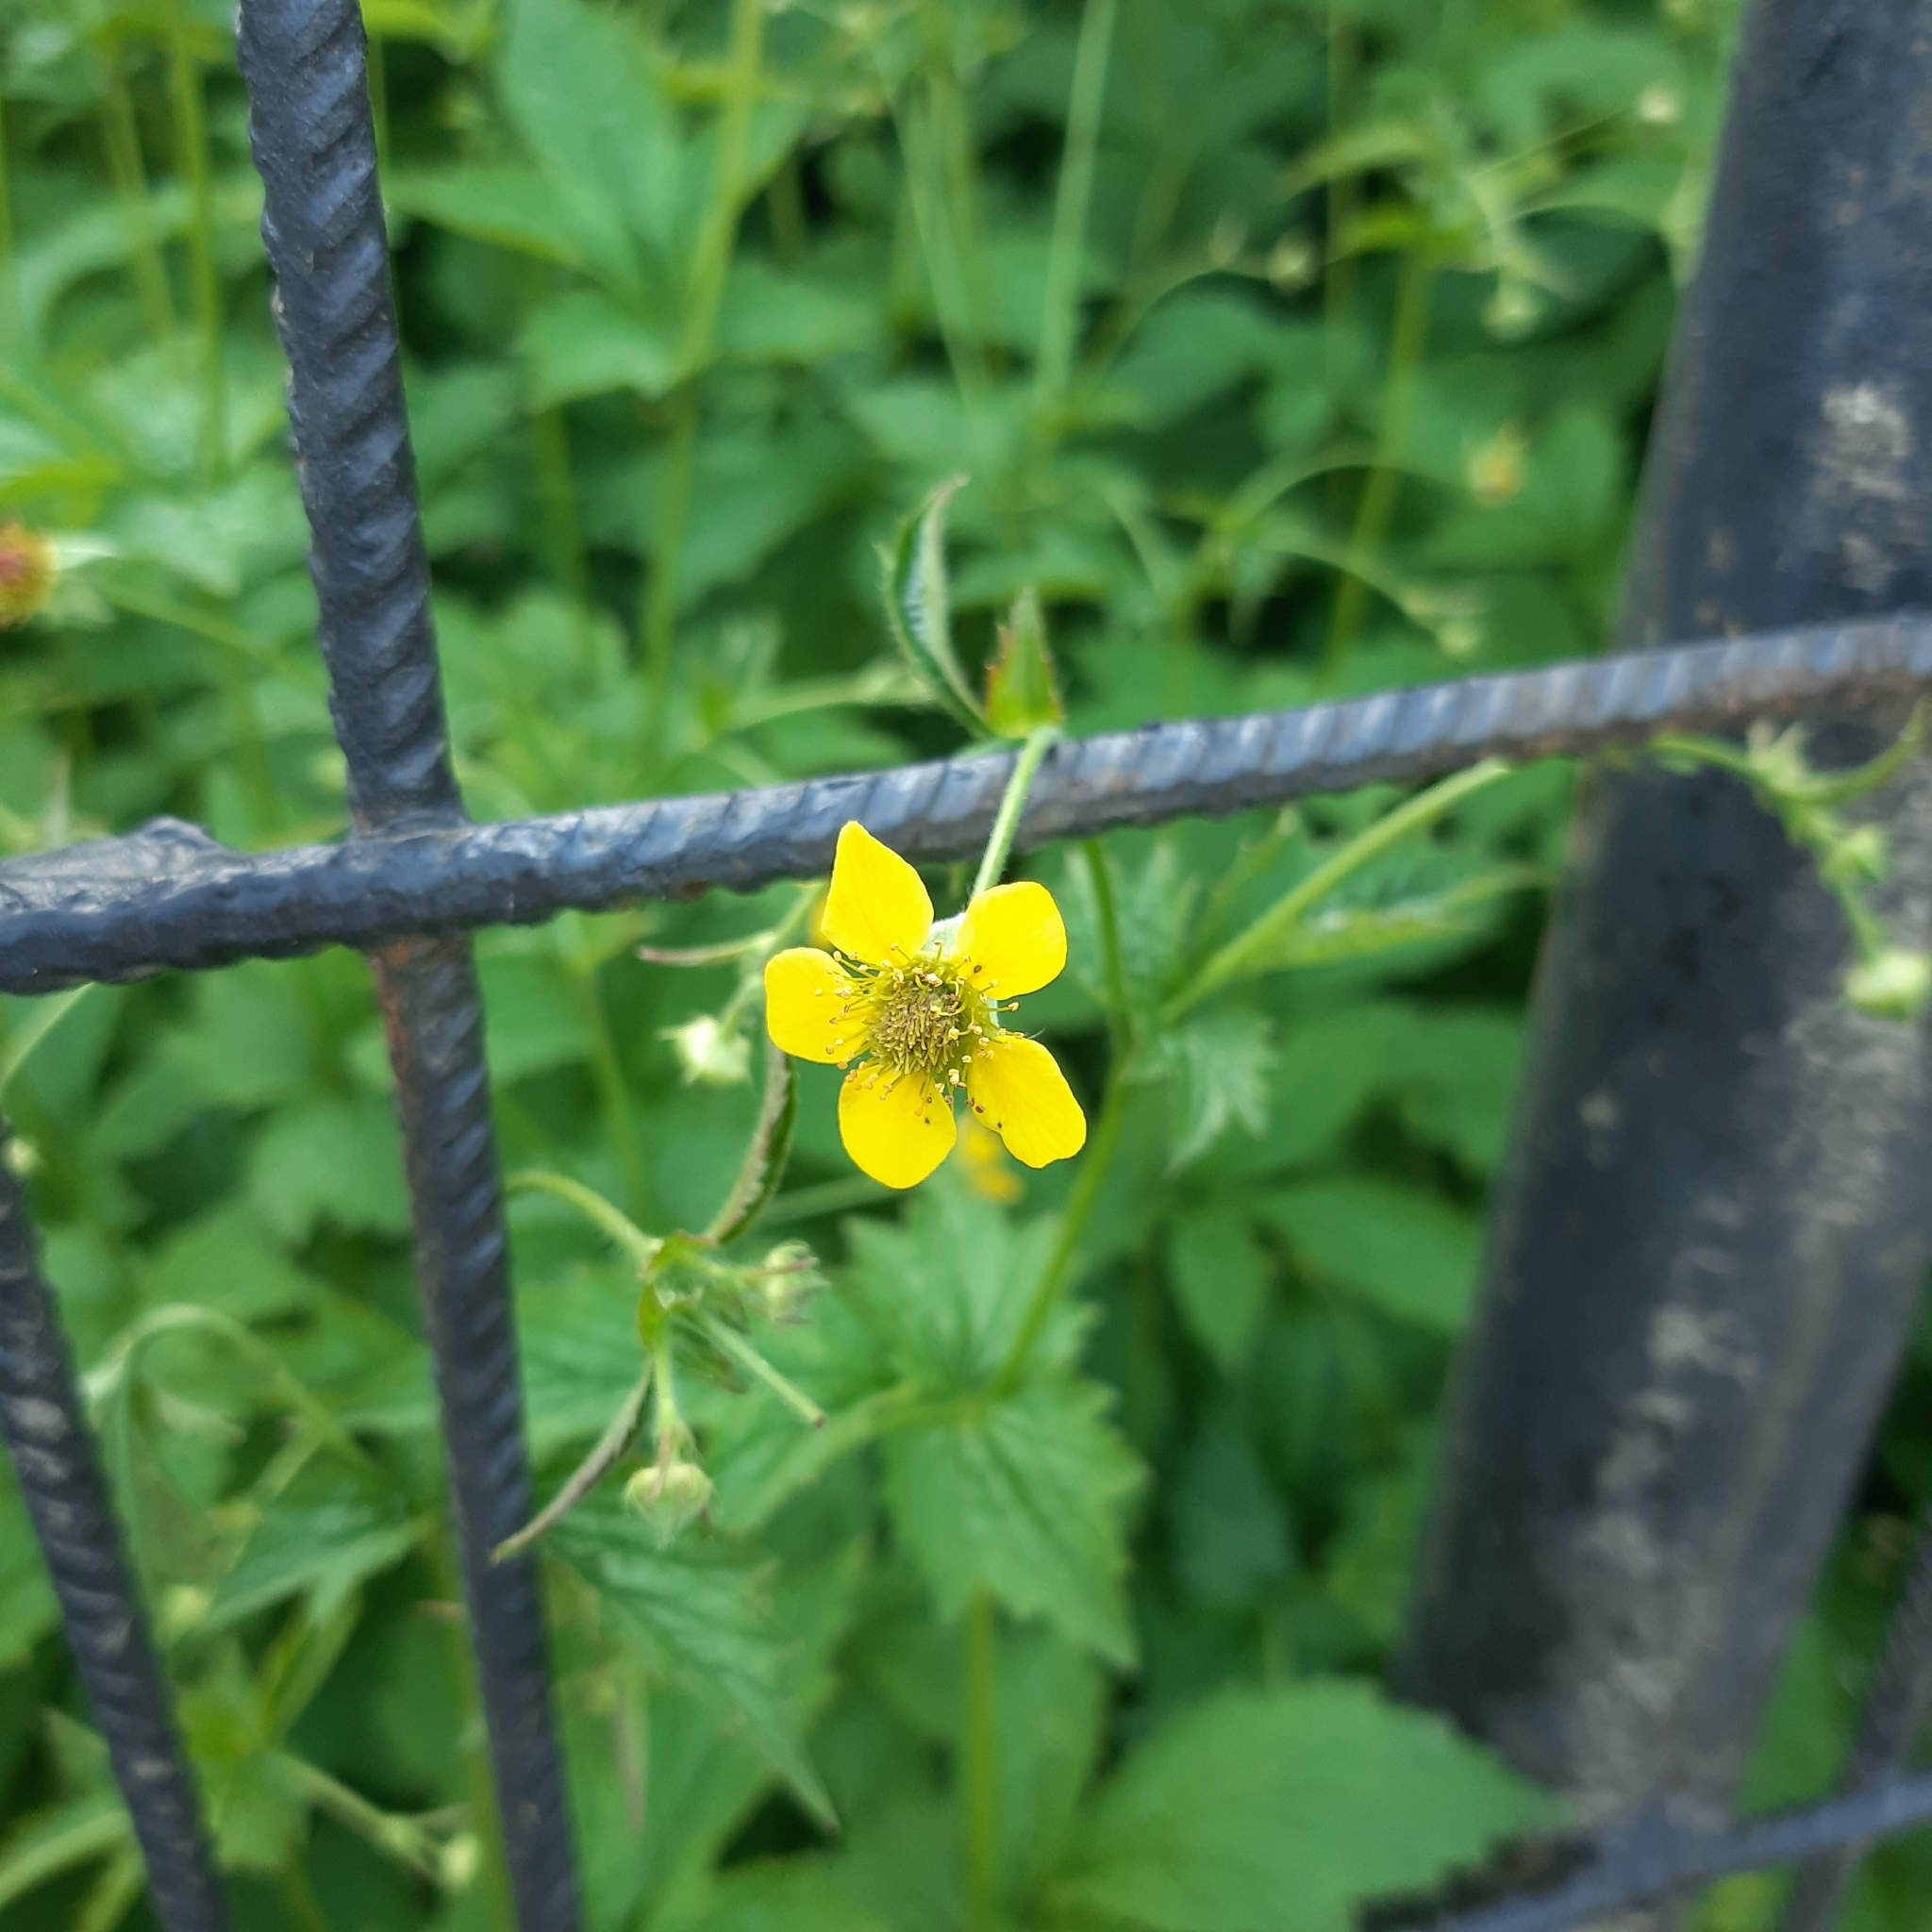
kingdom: Plantae
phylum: Tracheophyta
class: Magnoliopsida
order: Rosales
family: Rosaceae
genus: Geum
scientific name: Geum urbanum
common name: Wood avens
